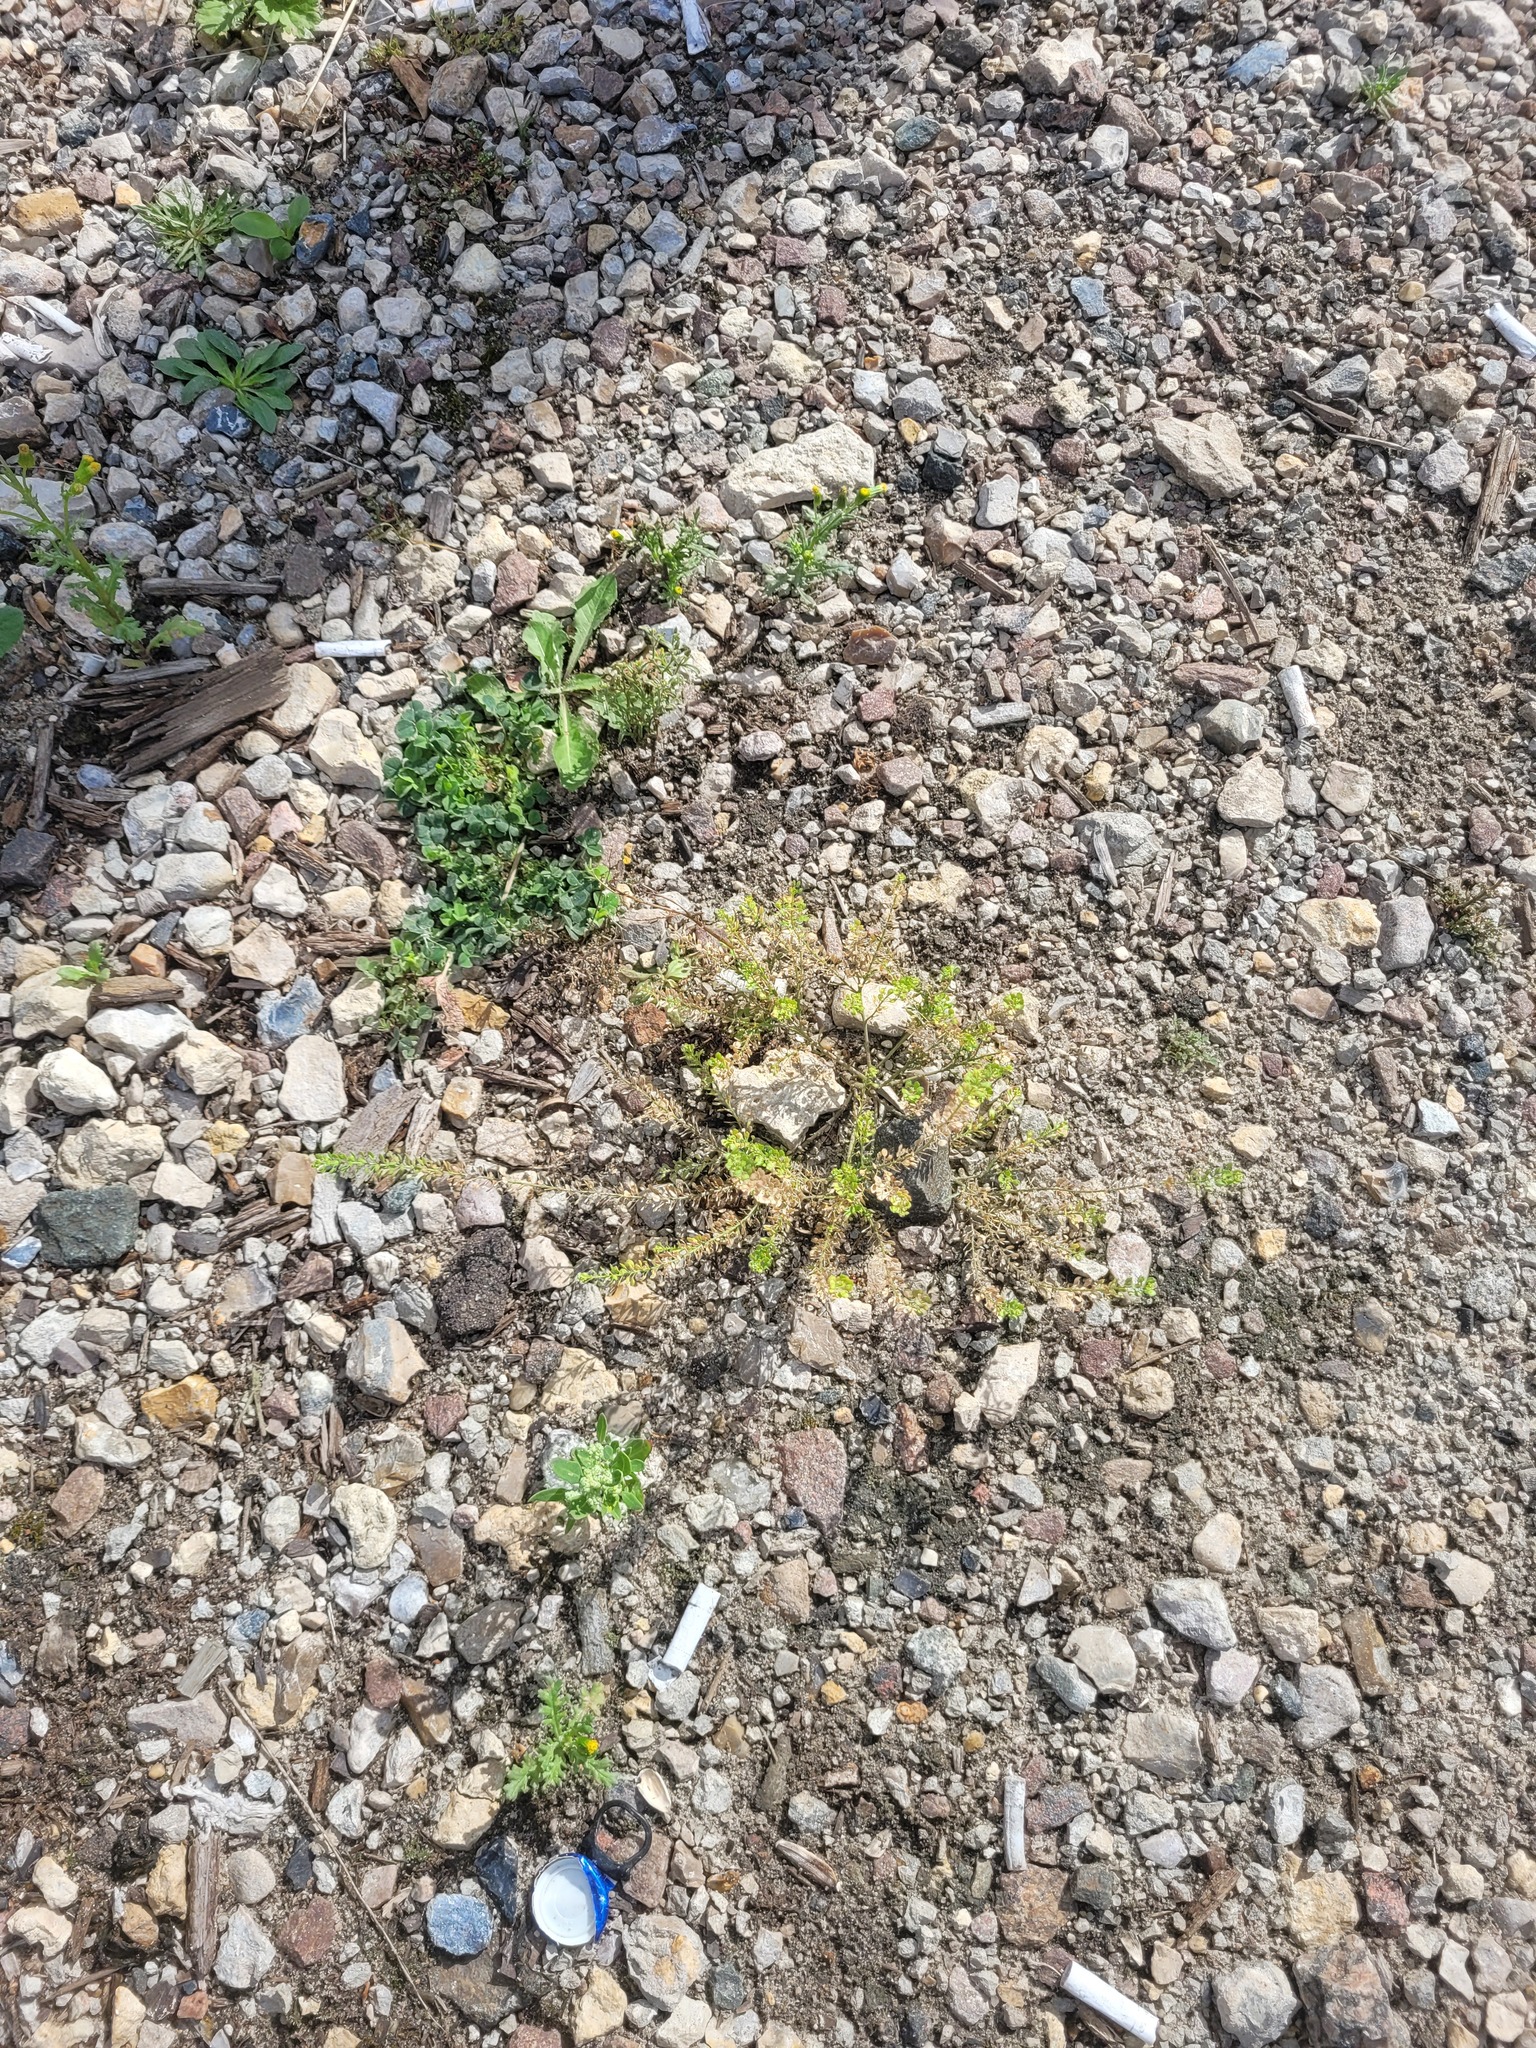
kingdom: Plantae
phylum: Tracheophyta
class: Magnoliopsida
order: Brassicales
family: Brassicaceae
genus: Lepidium
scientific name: Lepidium densiflorum
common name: Miner's pepperwort
